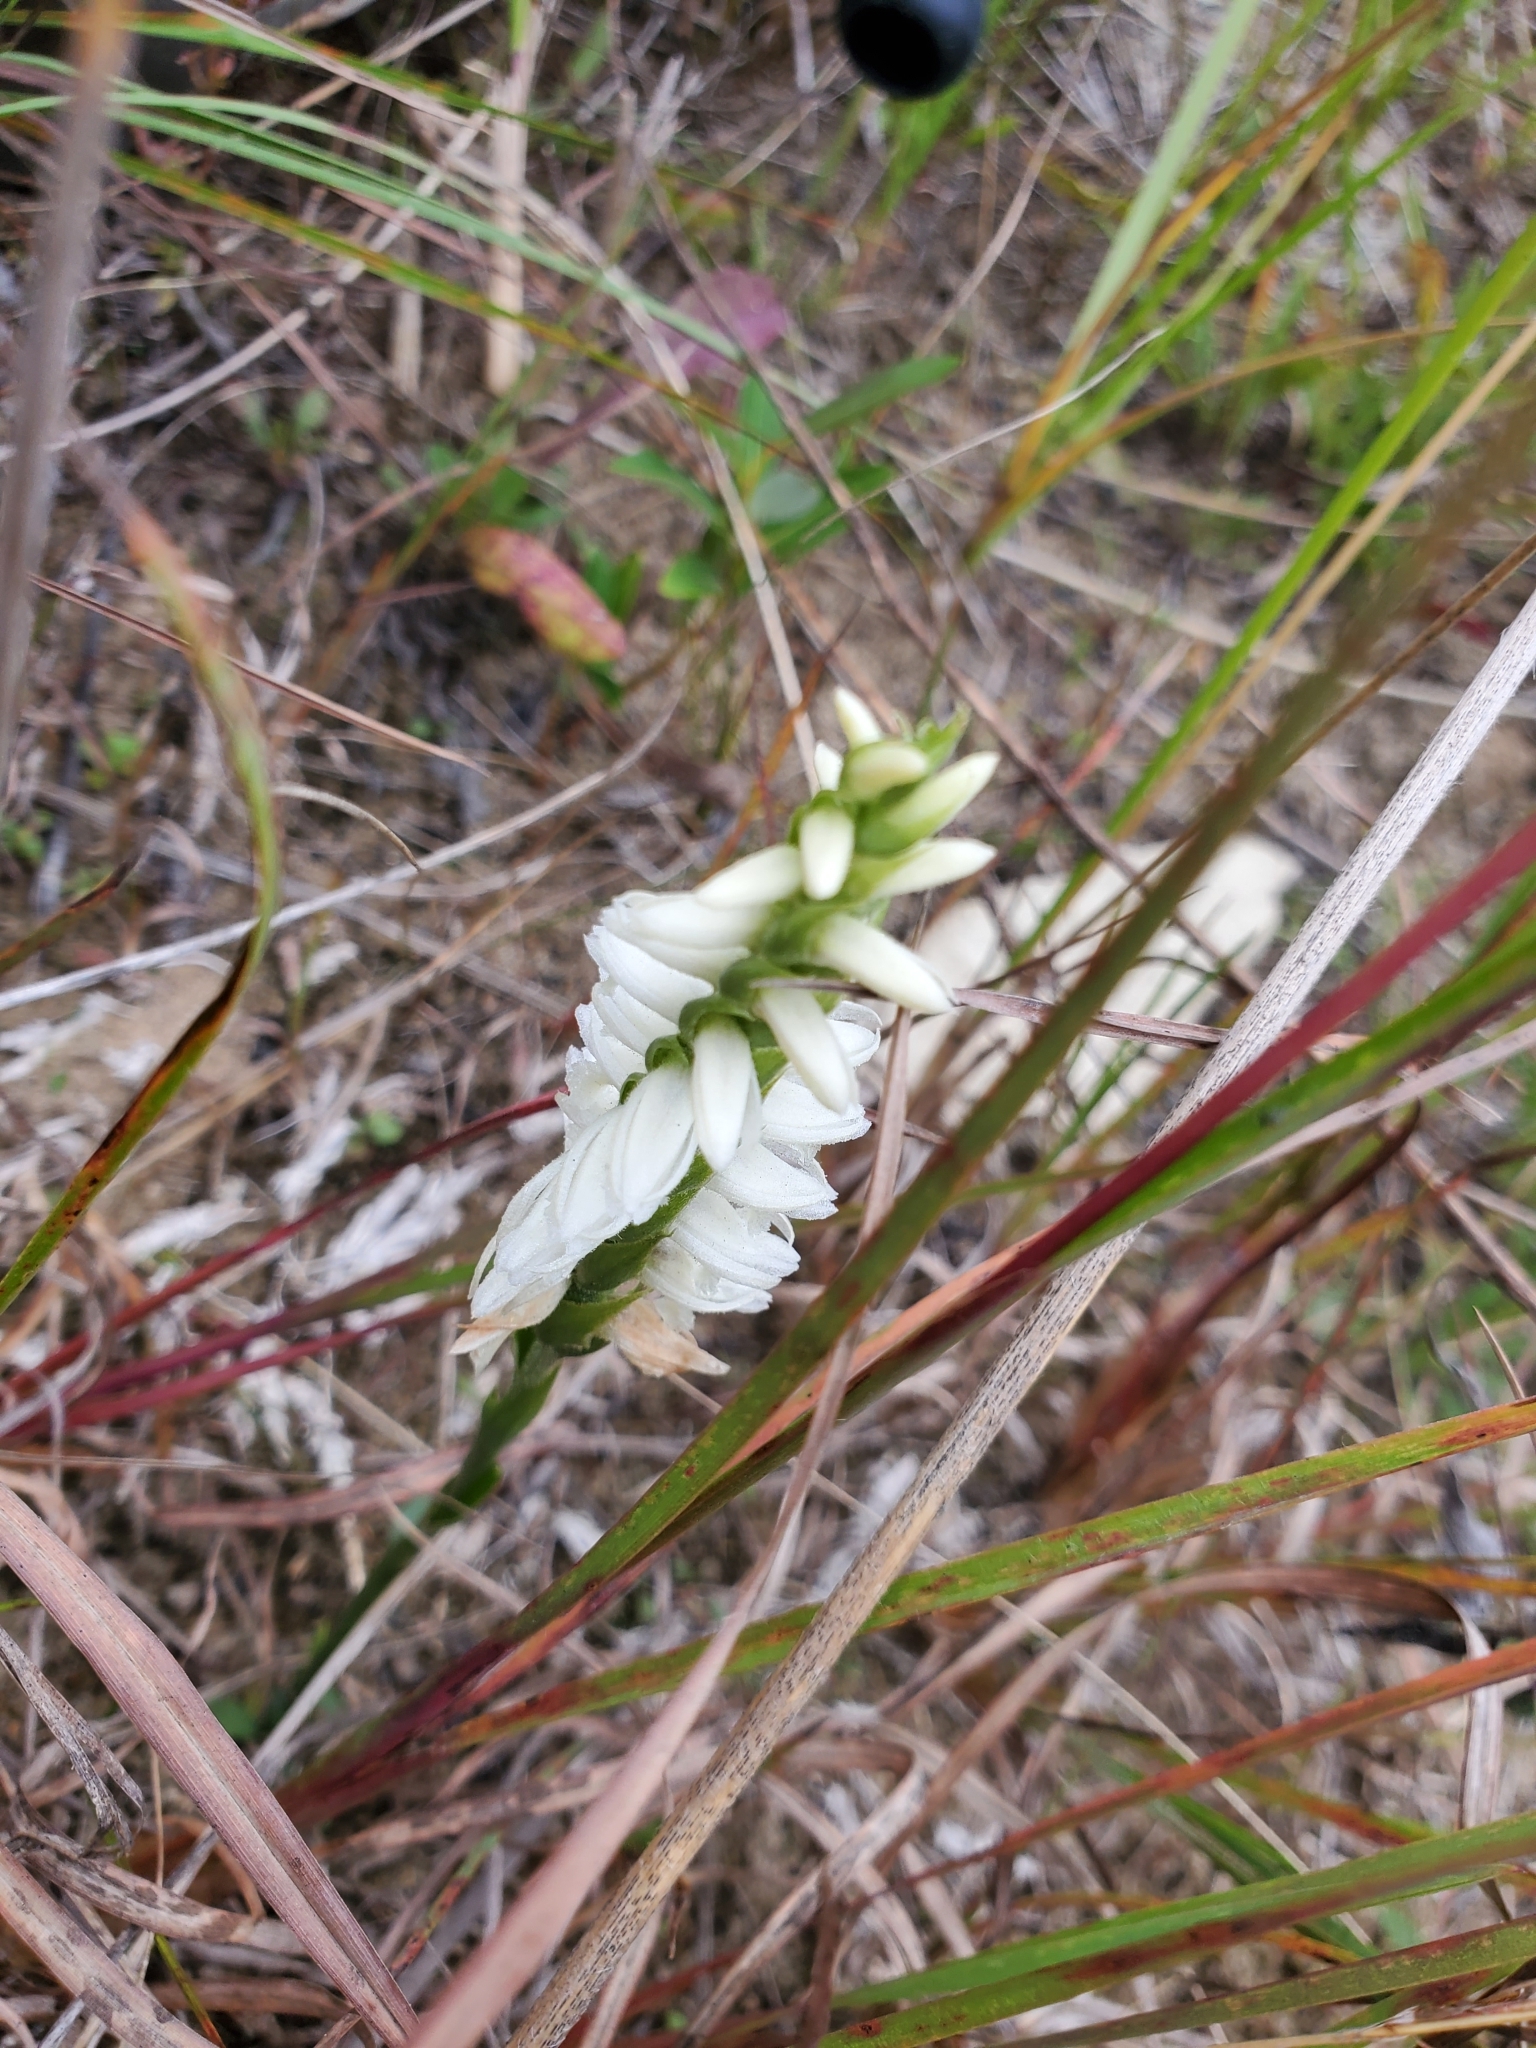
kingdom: Plantae
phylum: Tracheophyta
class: Liliopsida
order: Asparagales
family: Orchidaceae
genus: Spiranthes
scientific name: Spiranthes magnicamporum
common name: Great plains ladies'-tresses
